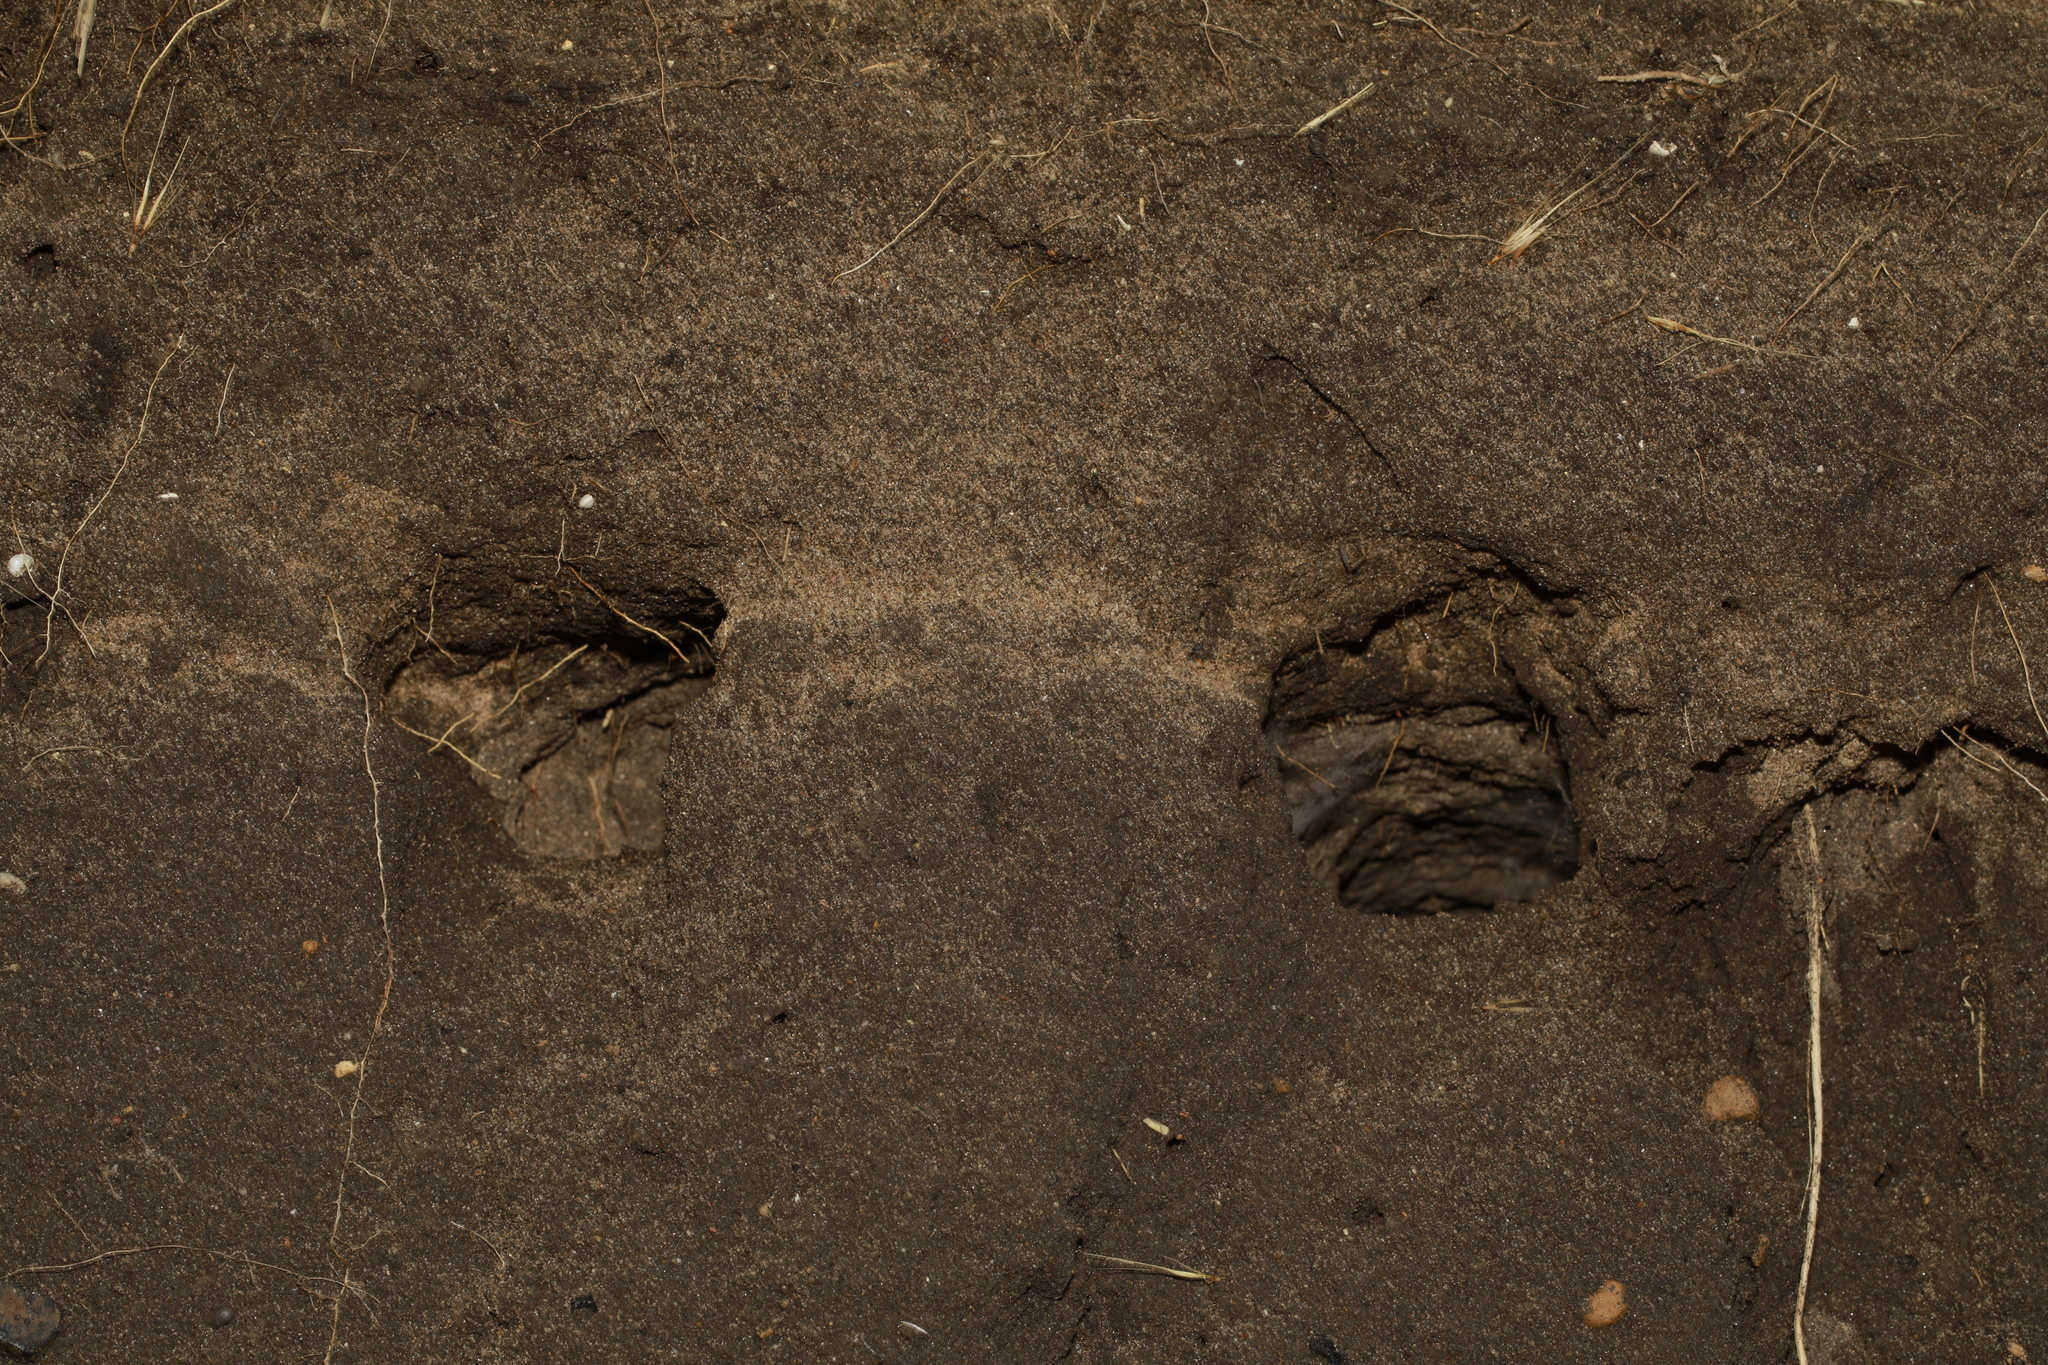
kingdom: Animalia
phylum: Chordata
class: Aves
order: Passeriformes
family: Hirundinidae
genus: Riparia
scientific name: Riparia riparia
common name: Sand martin
